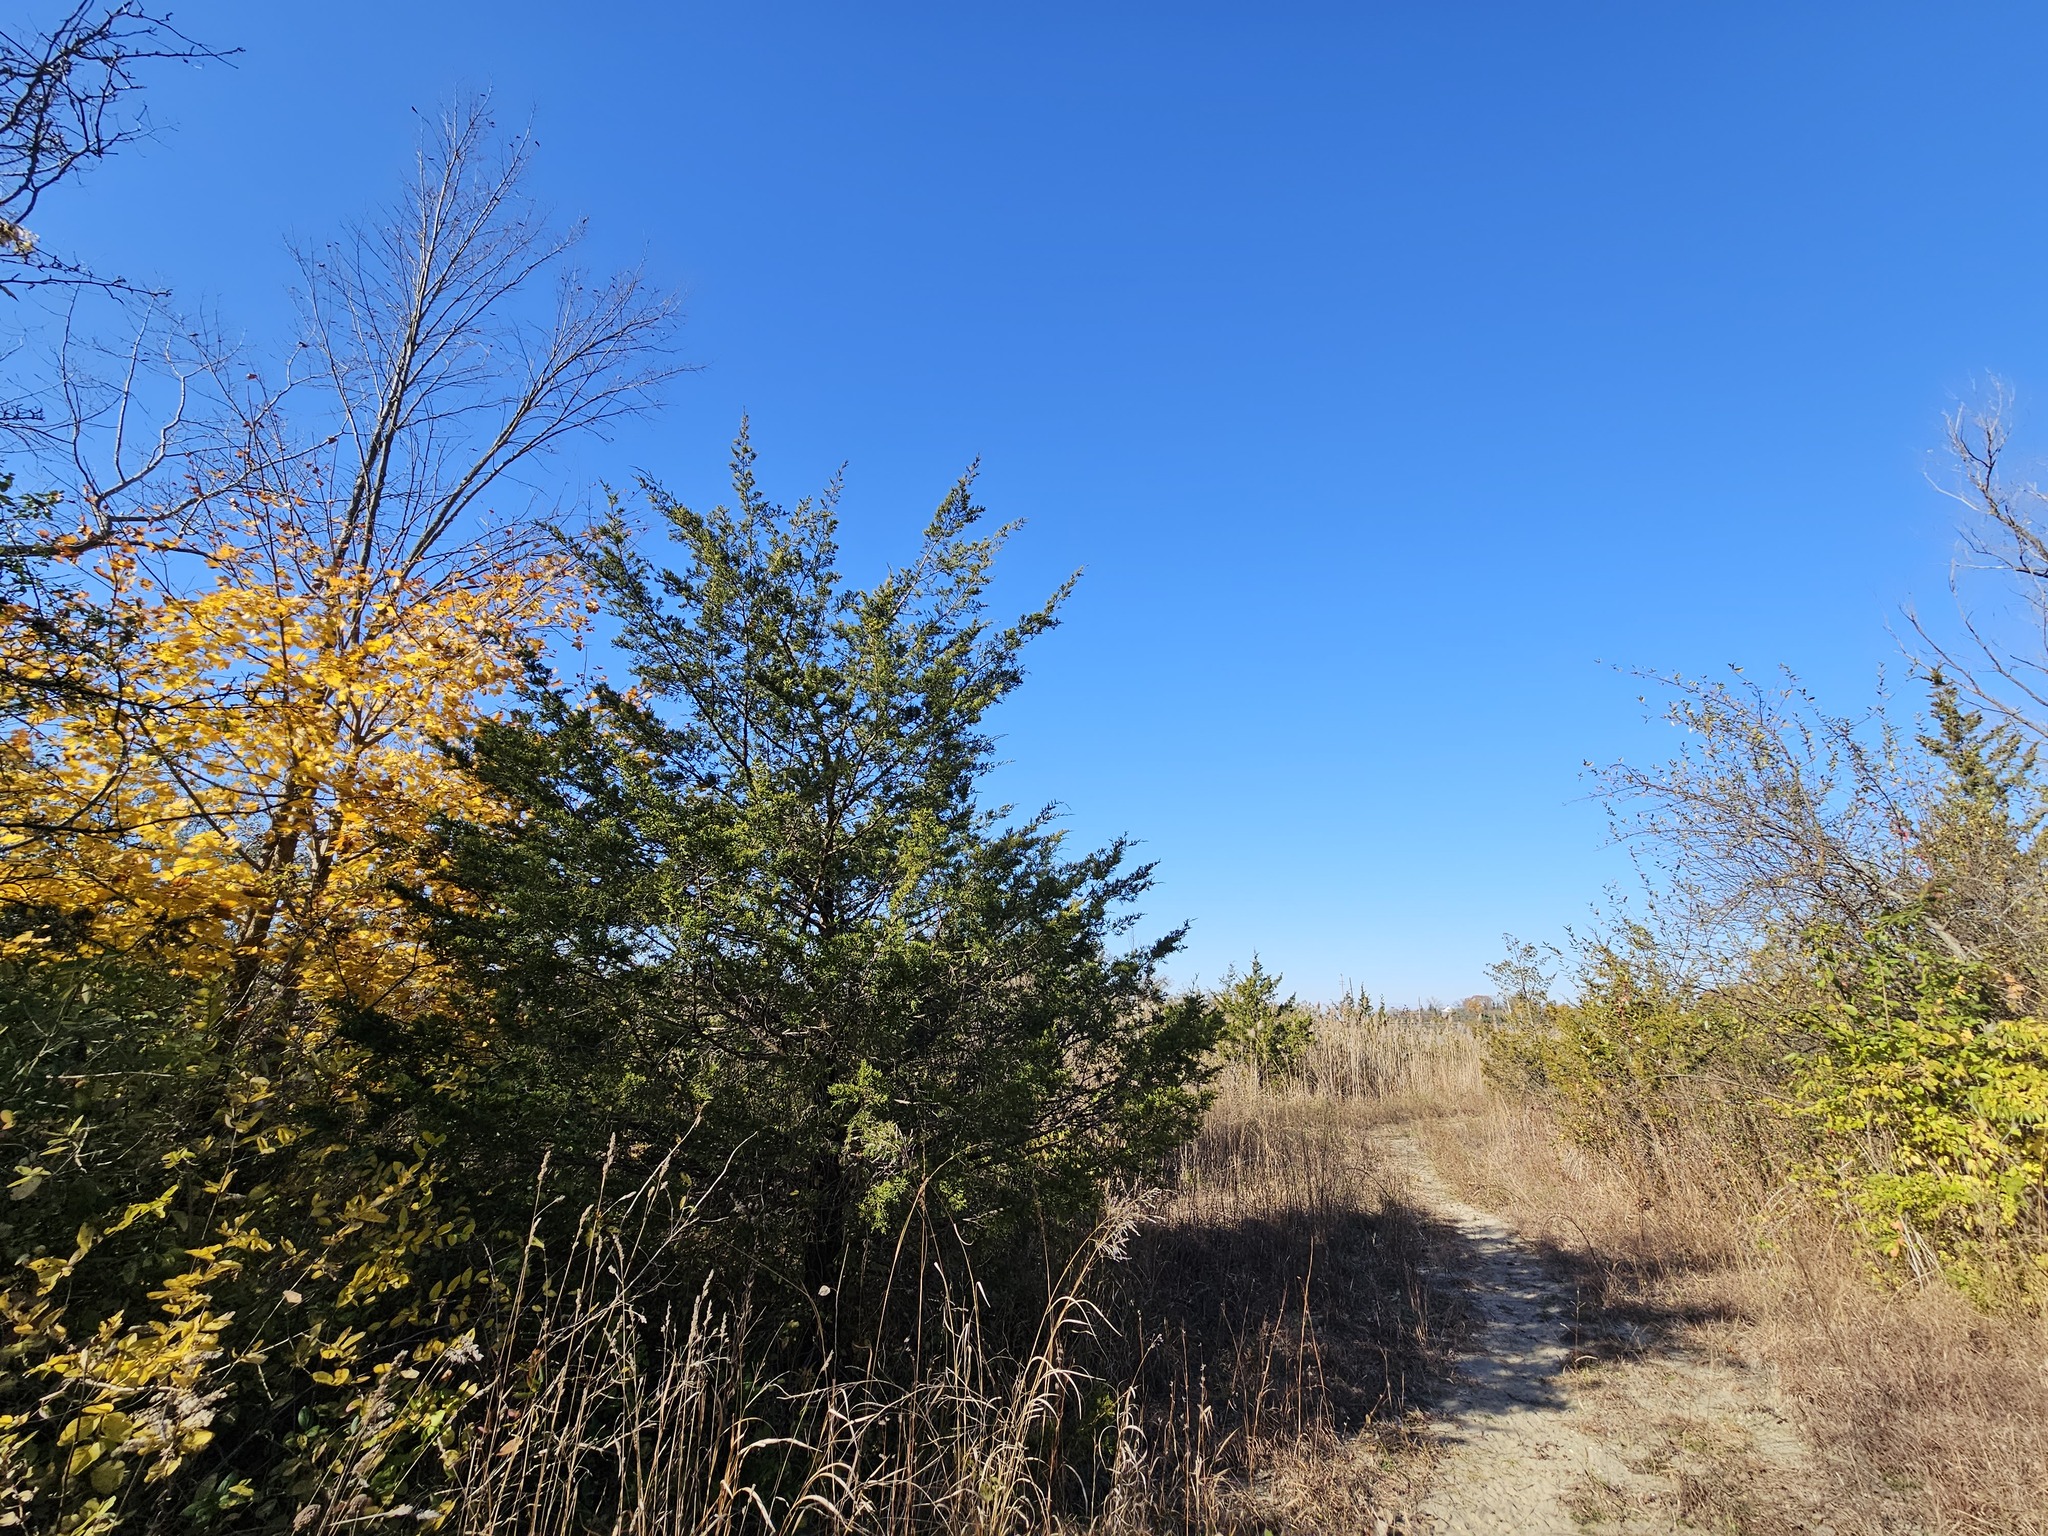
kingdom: Plantae
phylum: Tracheophyta
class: Pinopsida
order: Pinales
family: Cupressaceae
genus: Juniperus
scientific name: Juniperus virginiana
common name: Red juniper
